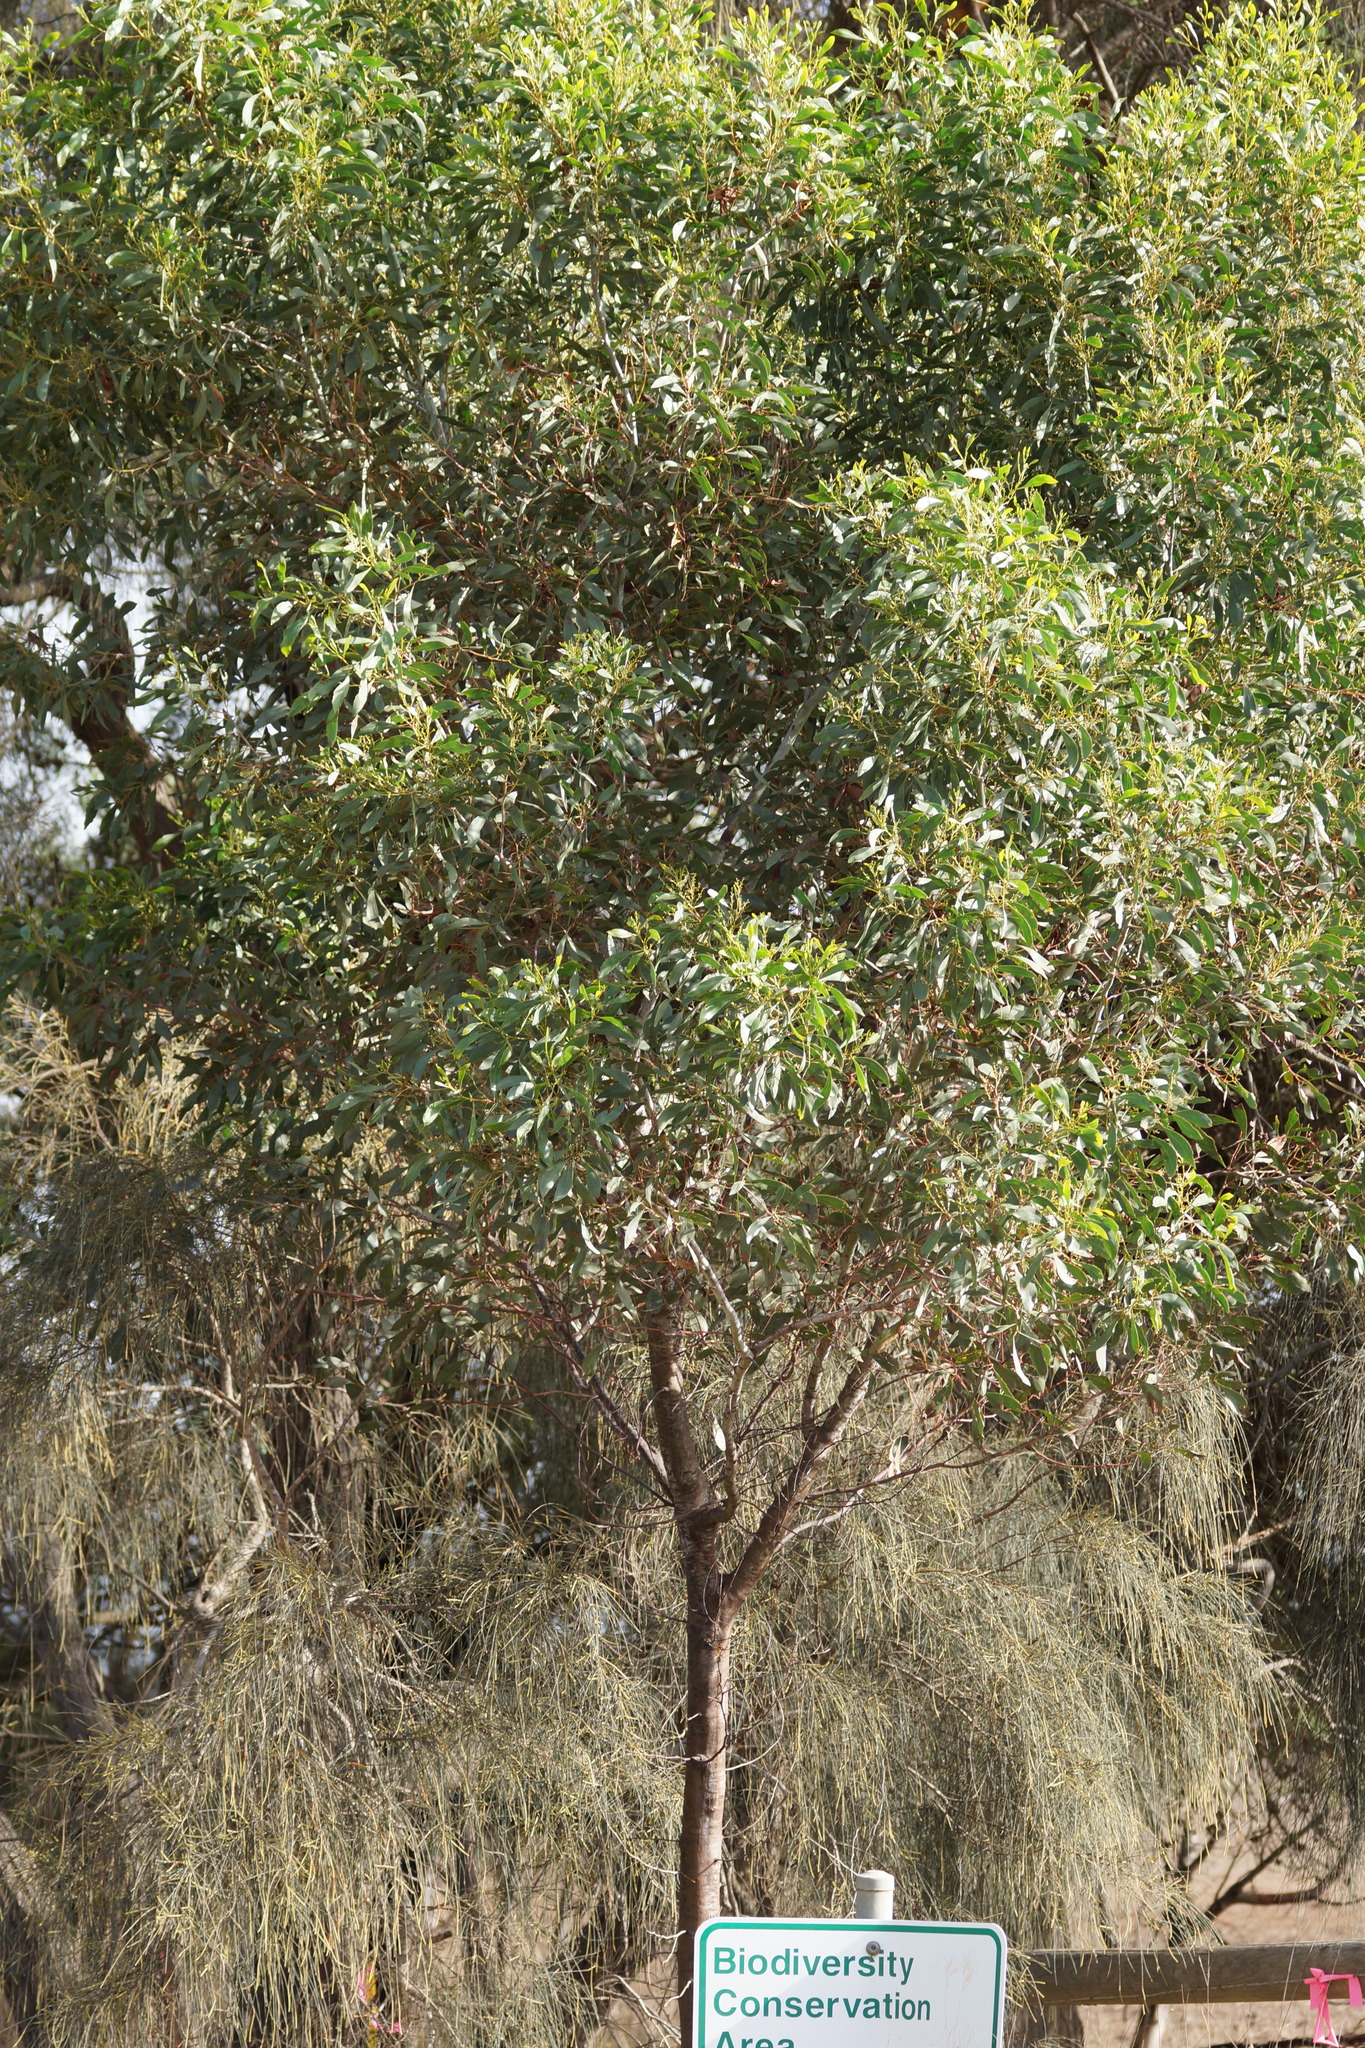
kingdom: Plantae
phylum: Tracheophyta
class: Magnoliopsida
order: Fabales
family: Fabaceae
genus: Acacia
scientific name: Acacia pycnantha
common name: Golden wattle
